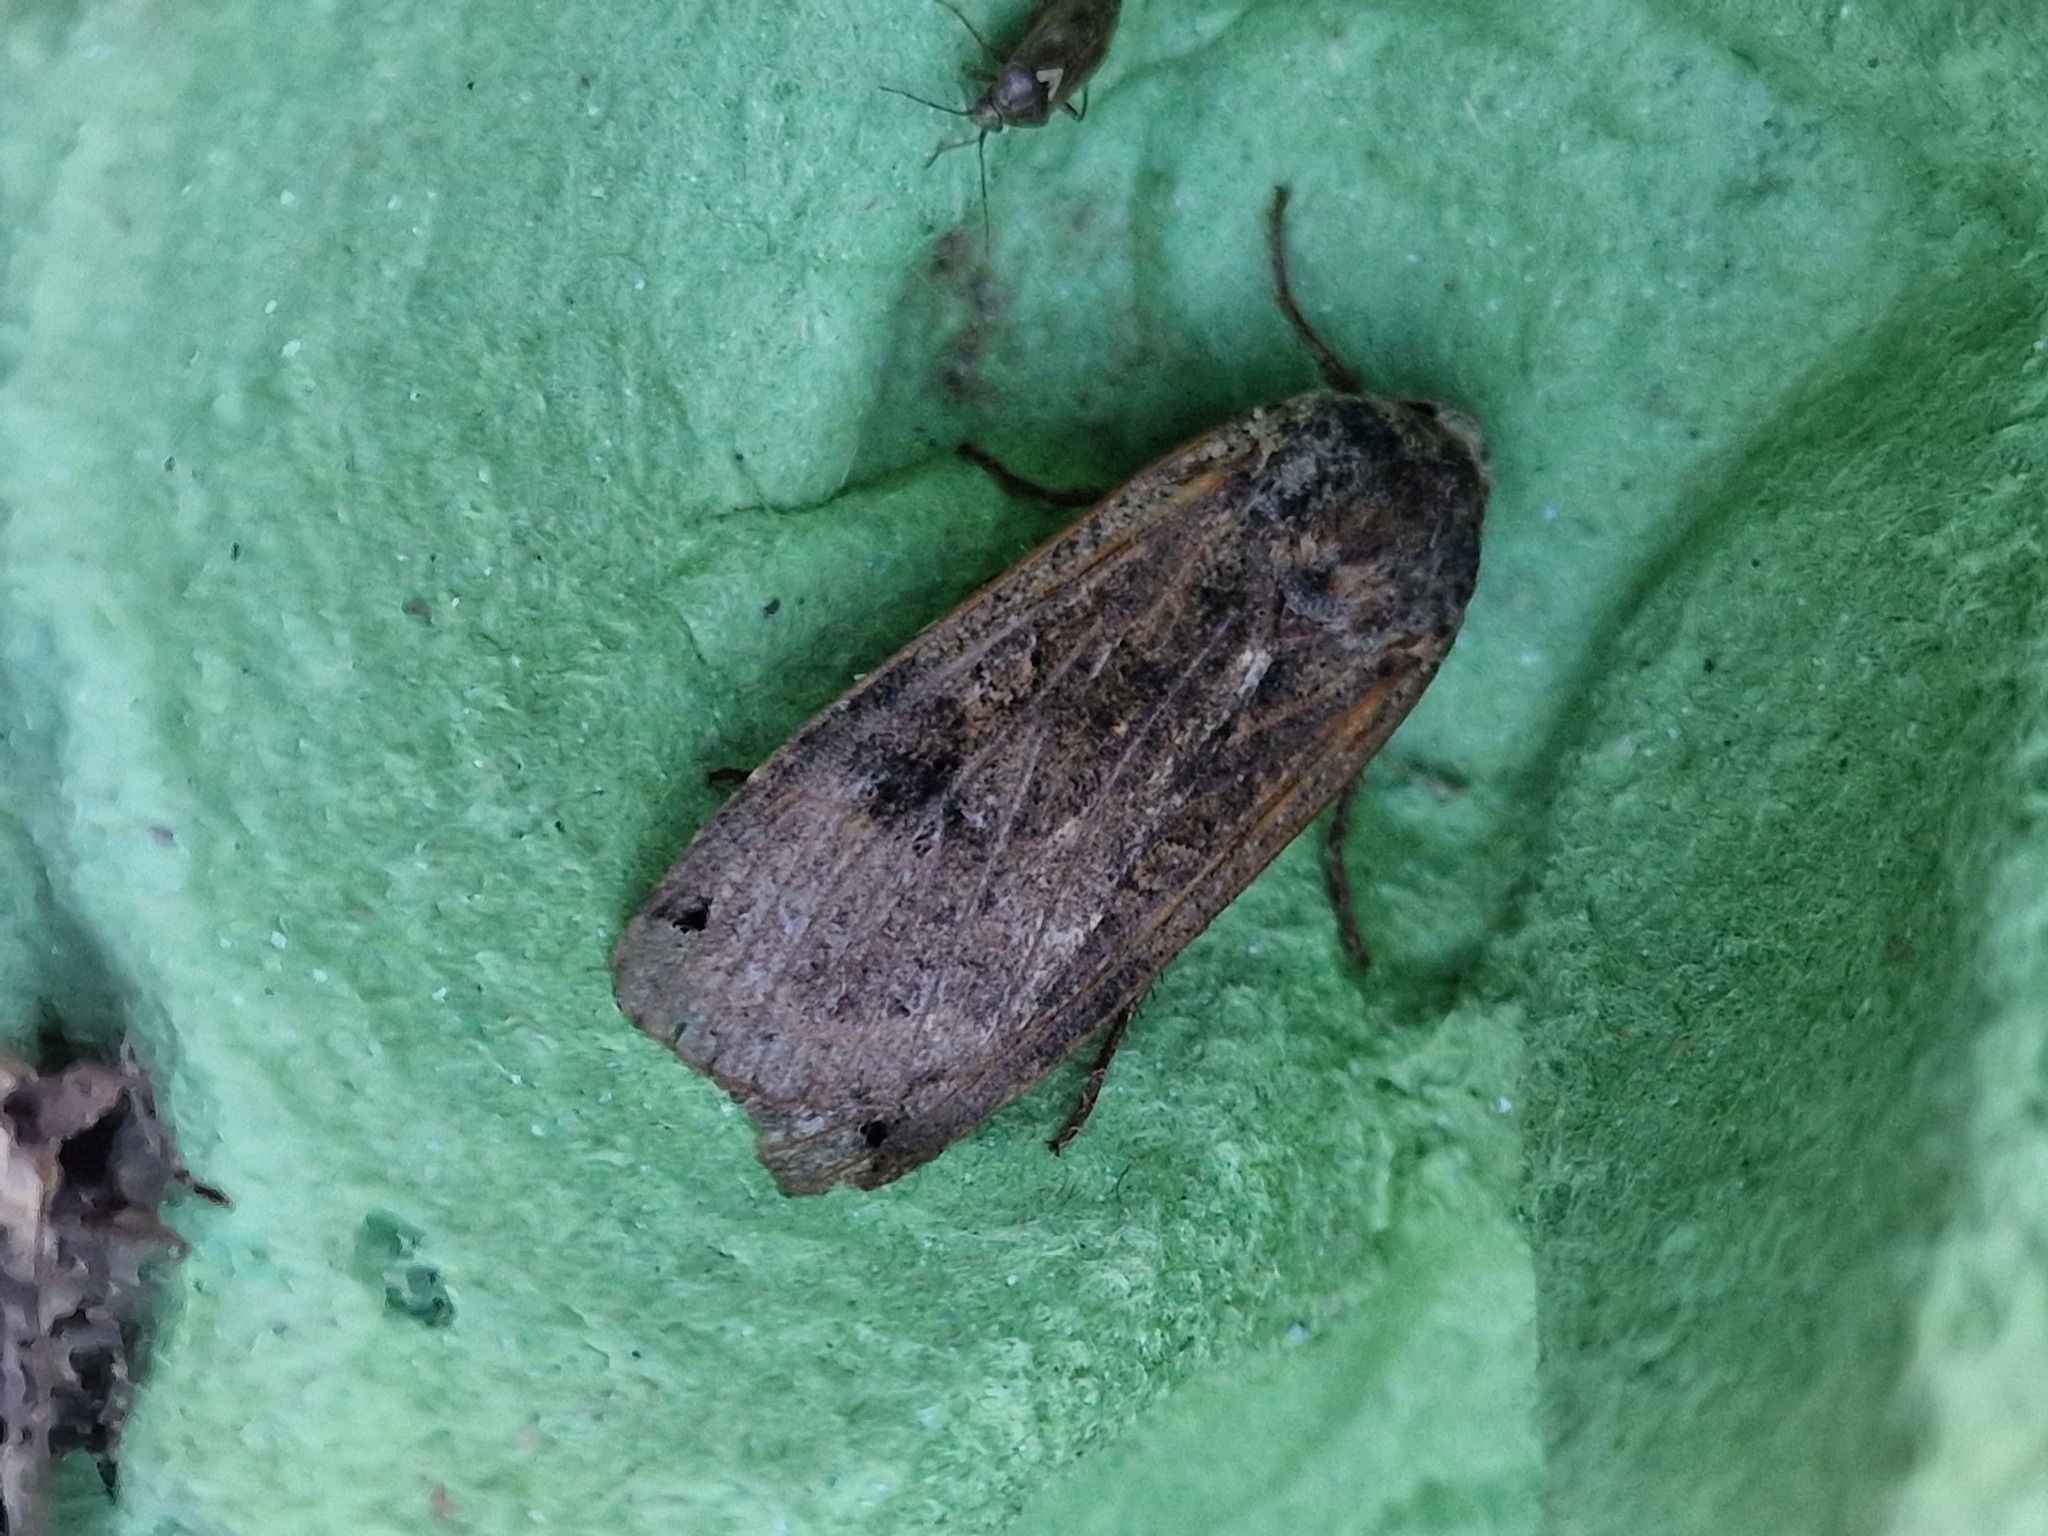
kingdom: Animalia
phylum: Arthropoda
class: Insecta
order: Lepidoptera
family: Noctuidae
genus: Noctua
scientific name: Noctua pronuba
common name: Large yellow underwing
